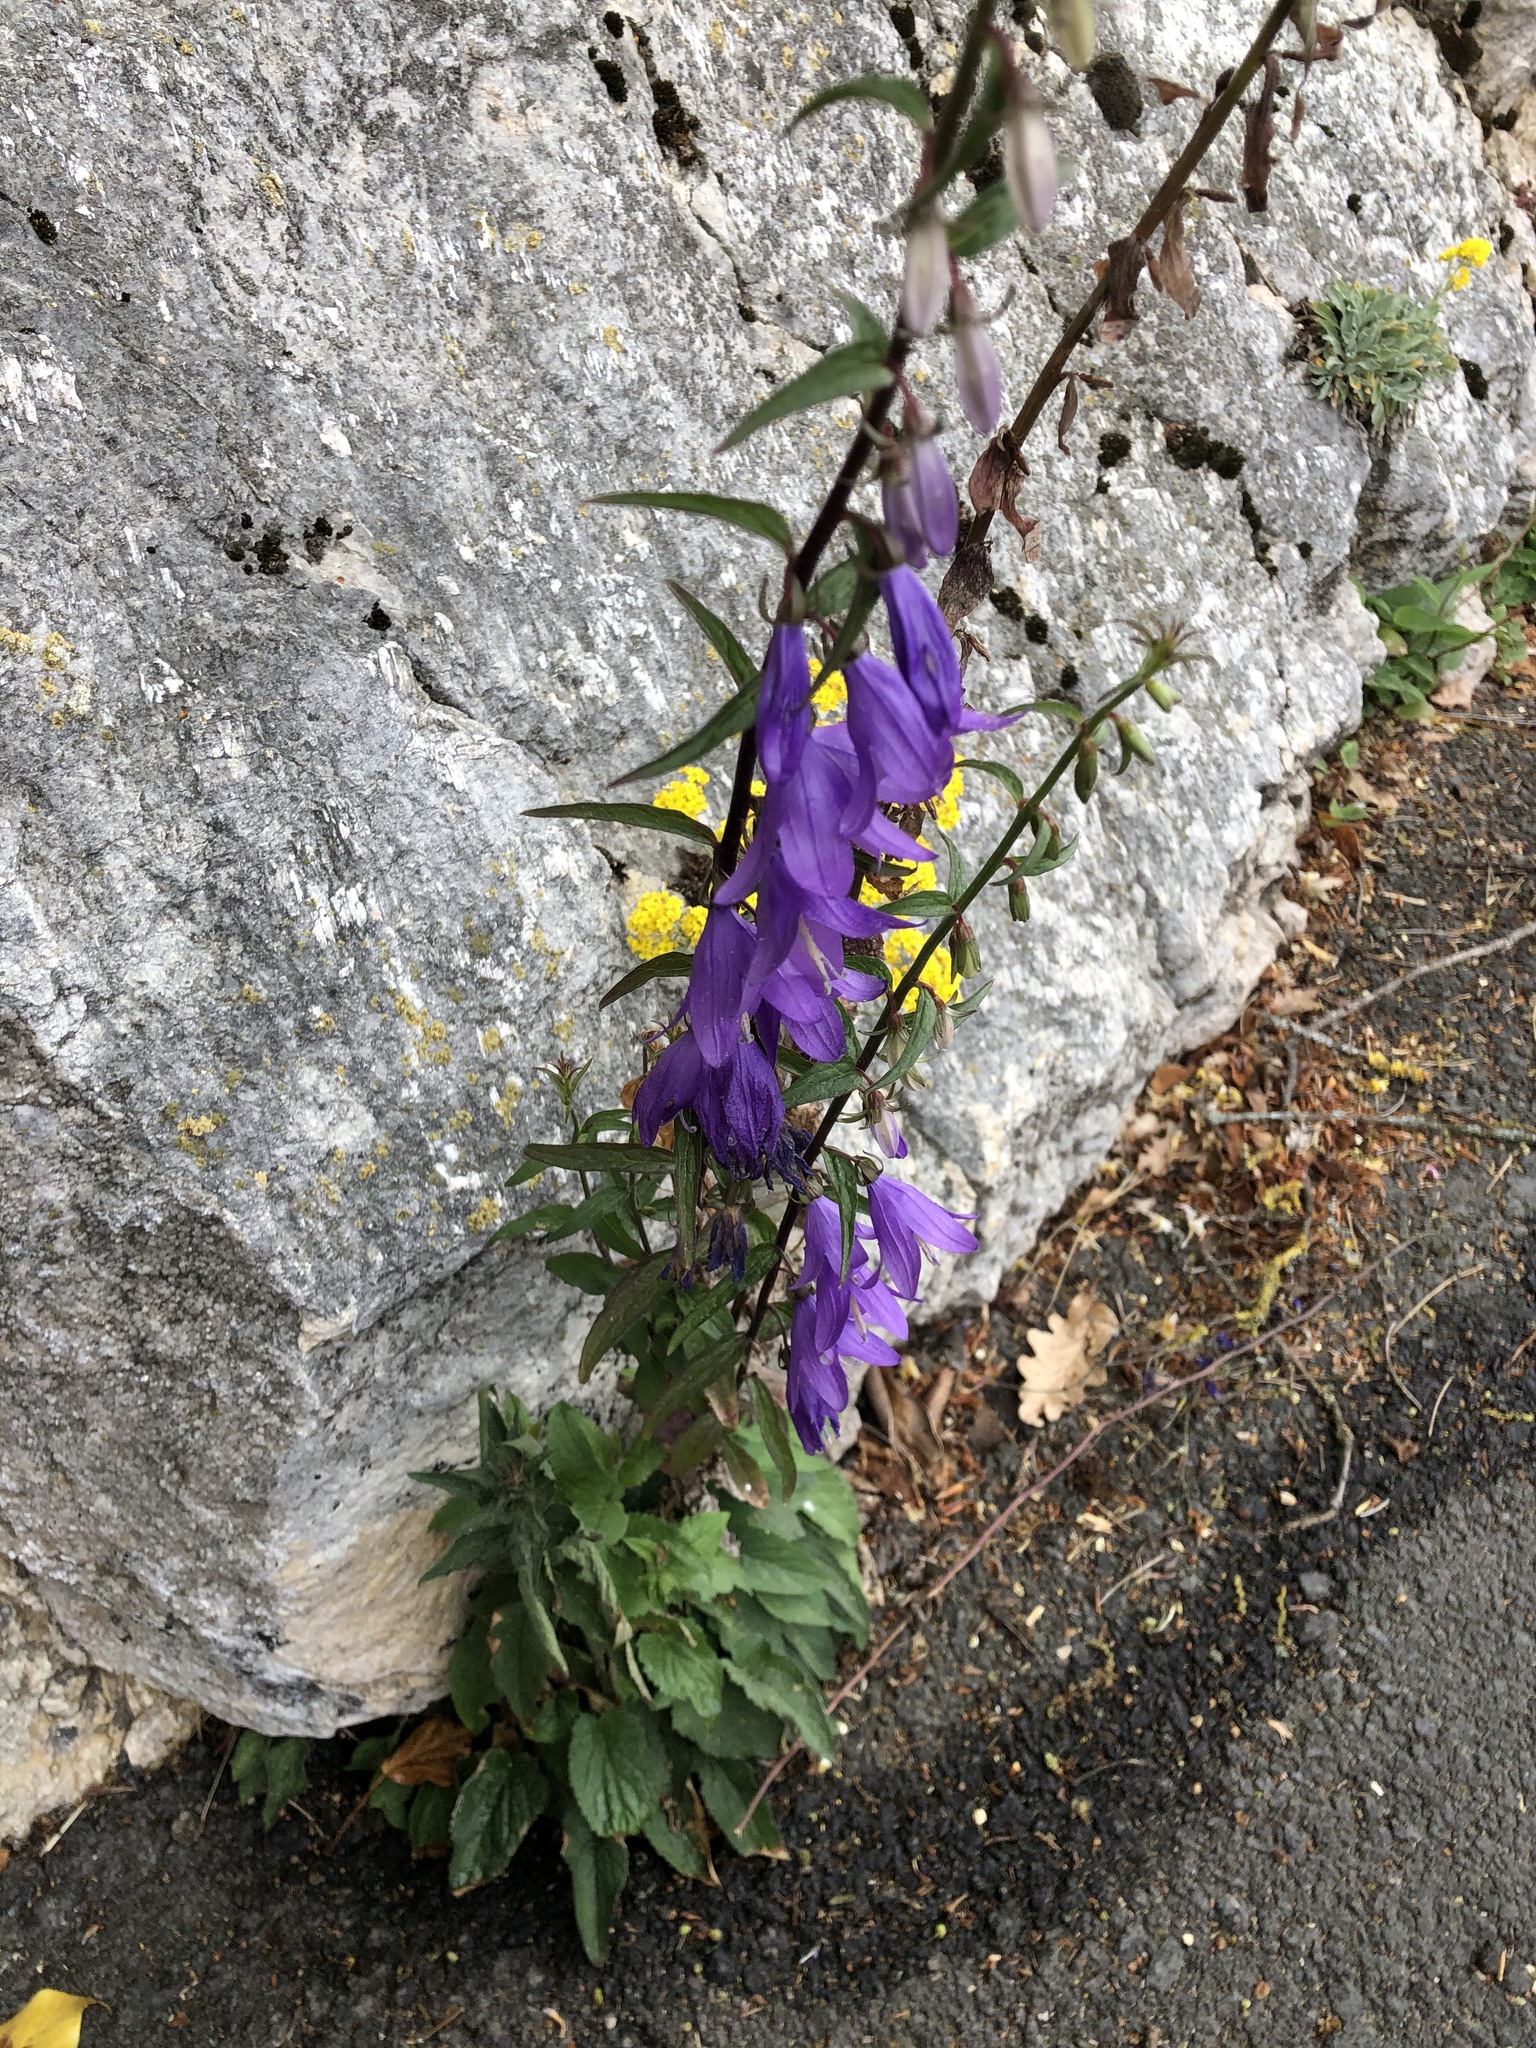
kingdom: Plantae
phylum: Tracheophyta
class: Magnoliopsida
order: Asterales
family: Campanulaceae
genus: Campanula
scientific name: Campanula rapunculoides
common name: Creeping bellflower
